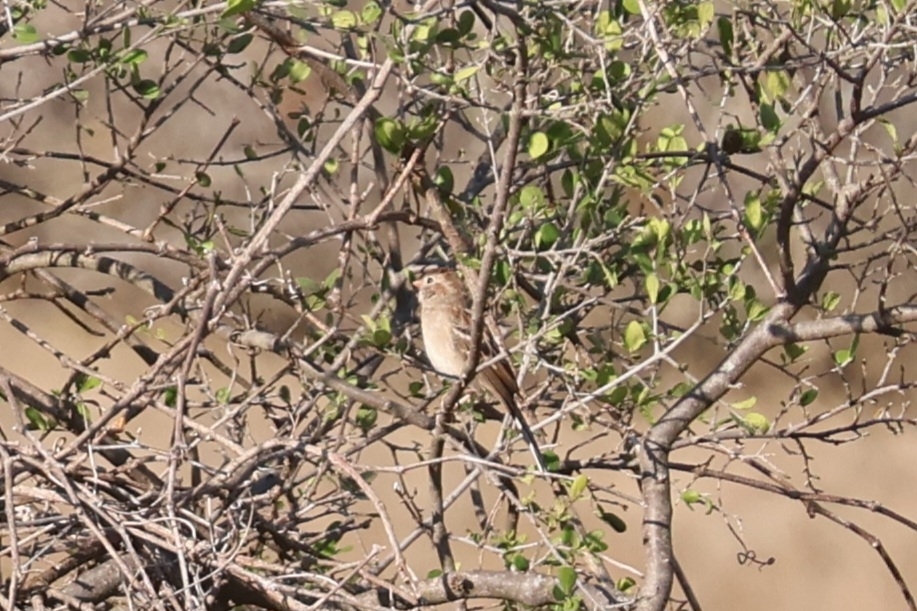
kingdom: Animalia
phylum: Chordata
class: Aves
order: Passeriformes
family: Passerellidae
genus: Spizella
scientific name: Spizella pusilla
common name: Field sparrow
